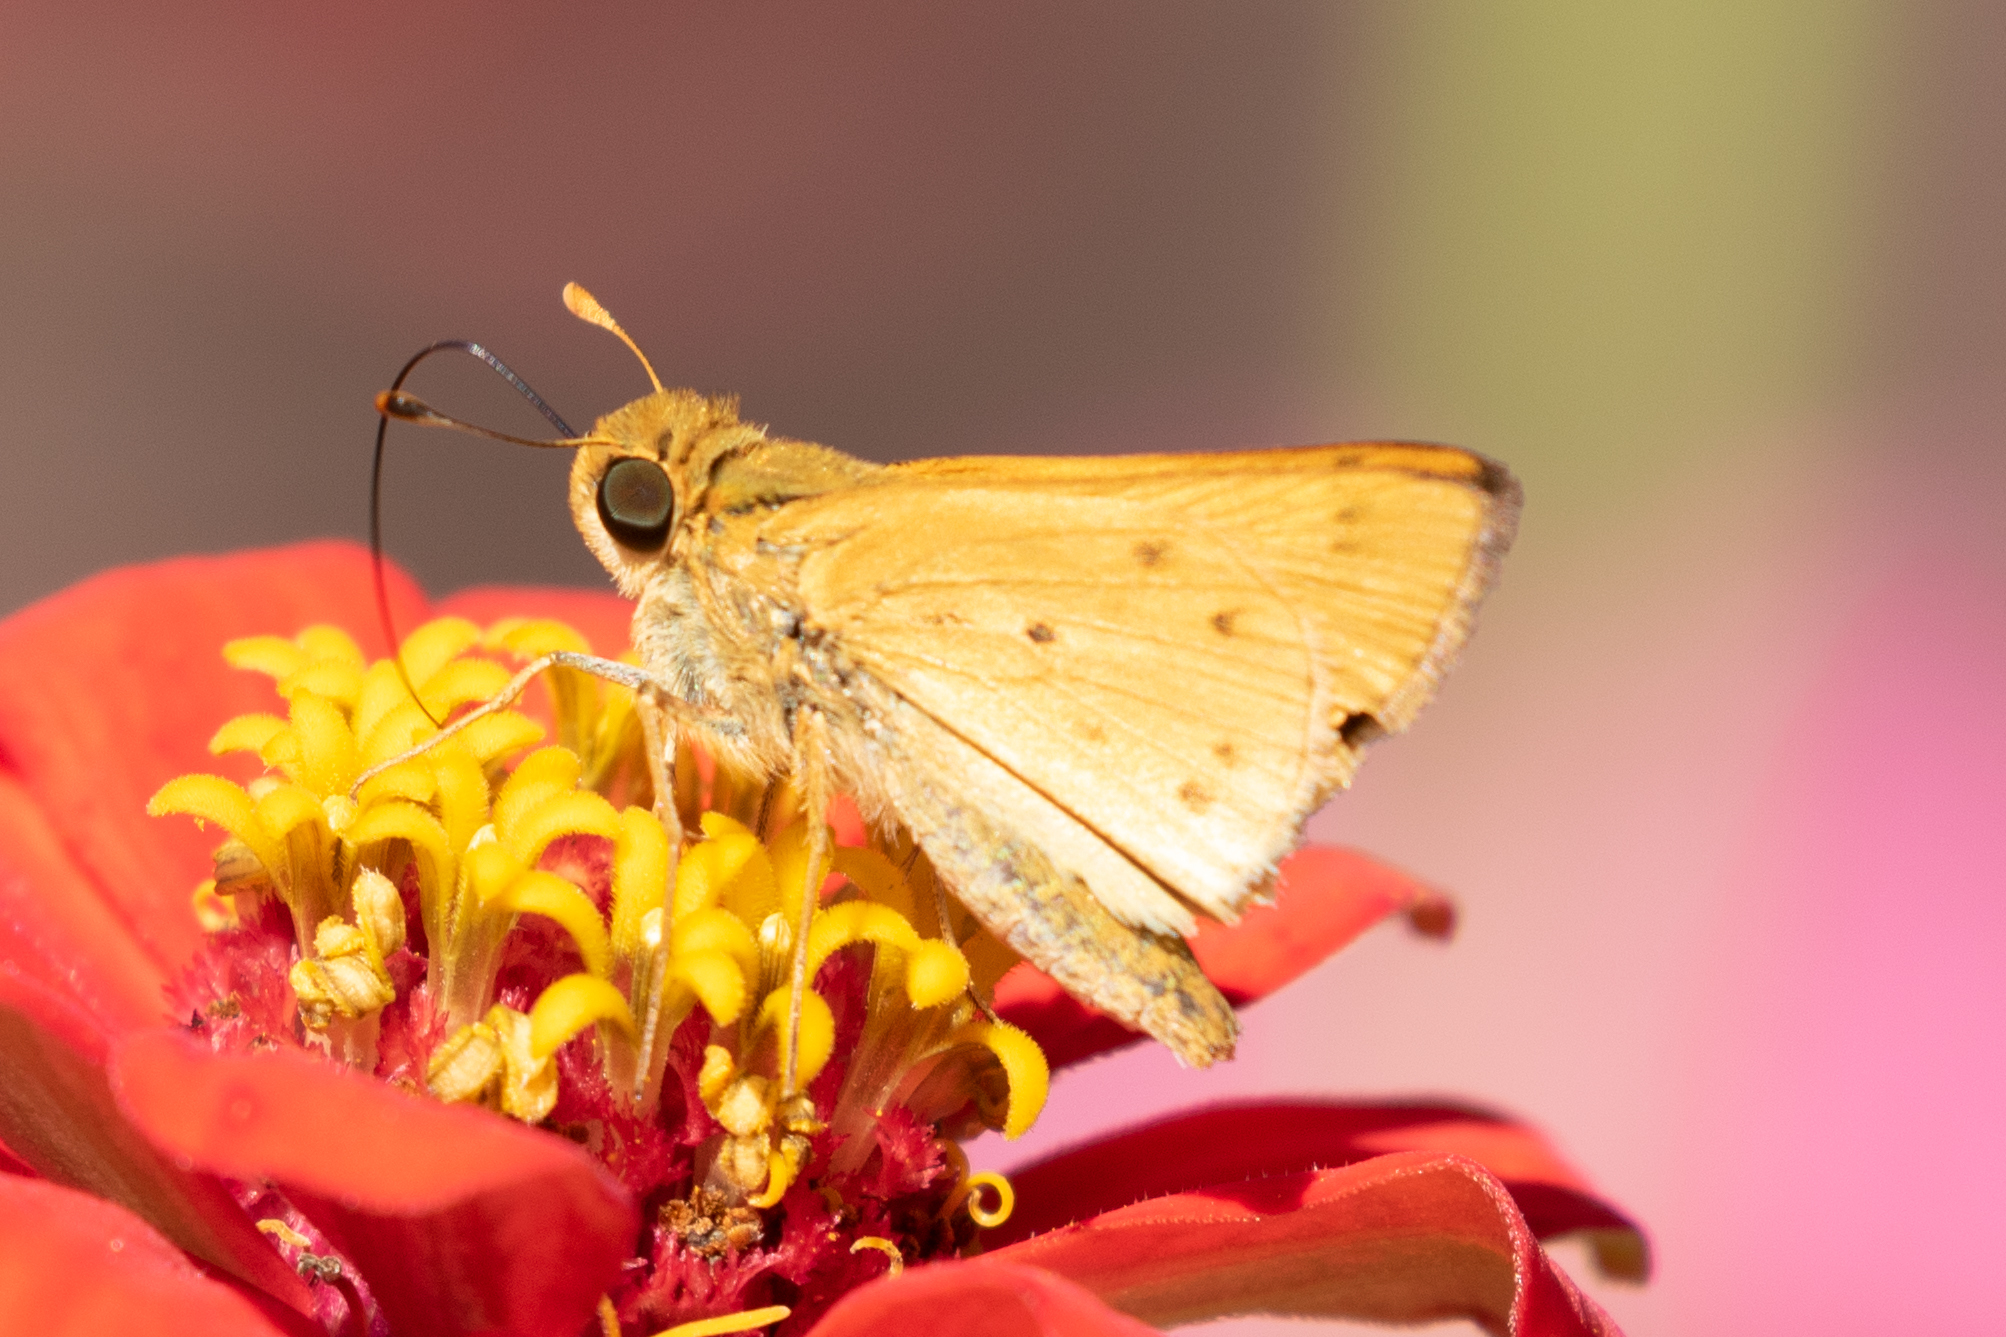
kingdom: Animalia
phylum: Arthropoda
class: Insecta
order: Lepidoptera
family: Hesperiidae
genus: Hylephila
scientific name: Hylephila phyleus
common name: Fiery skipper
